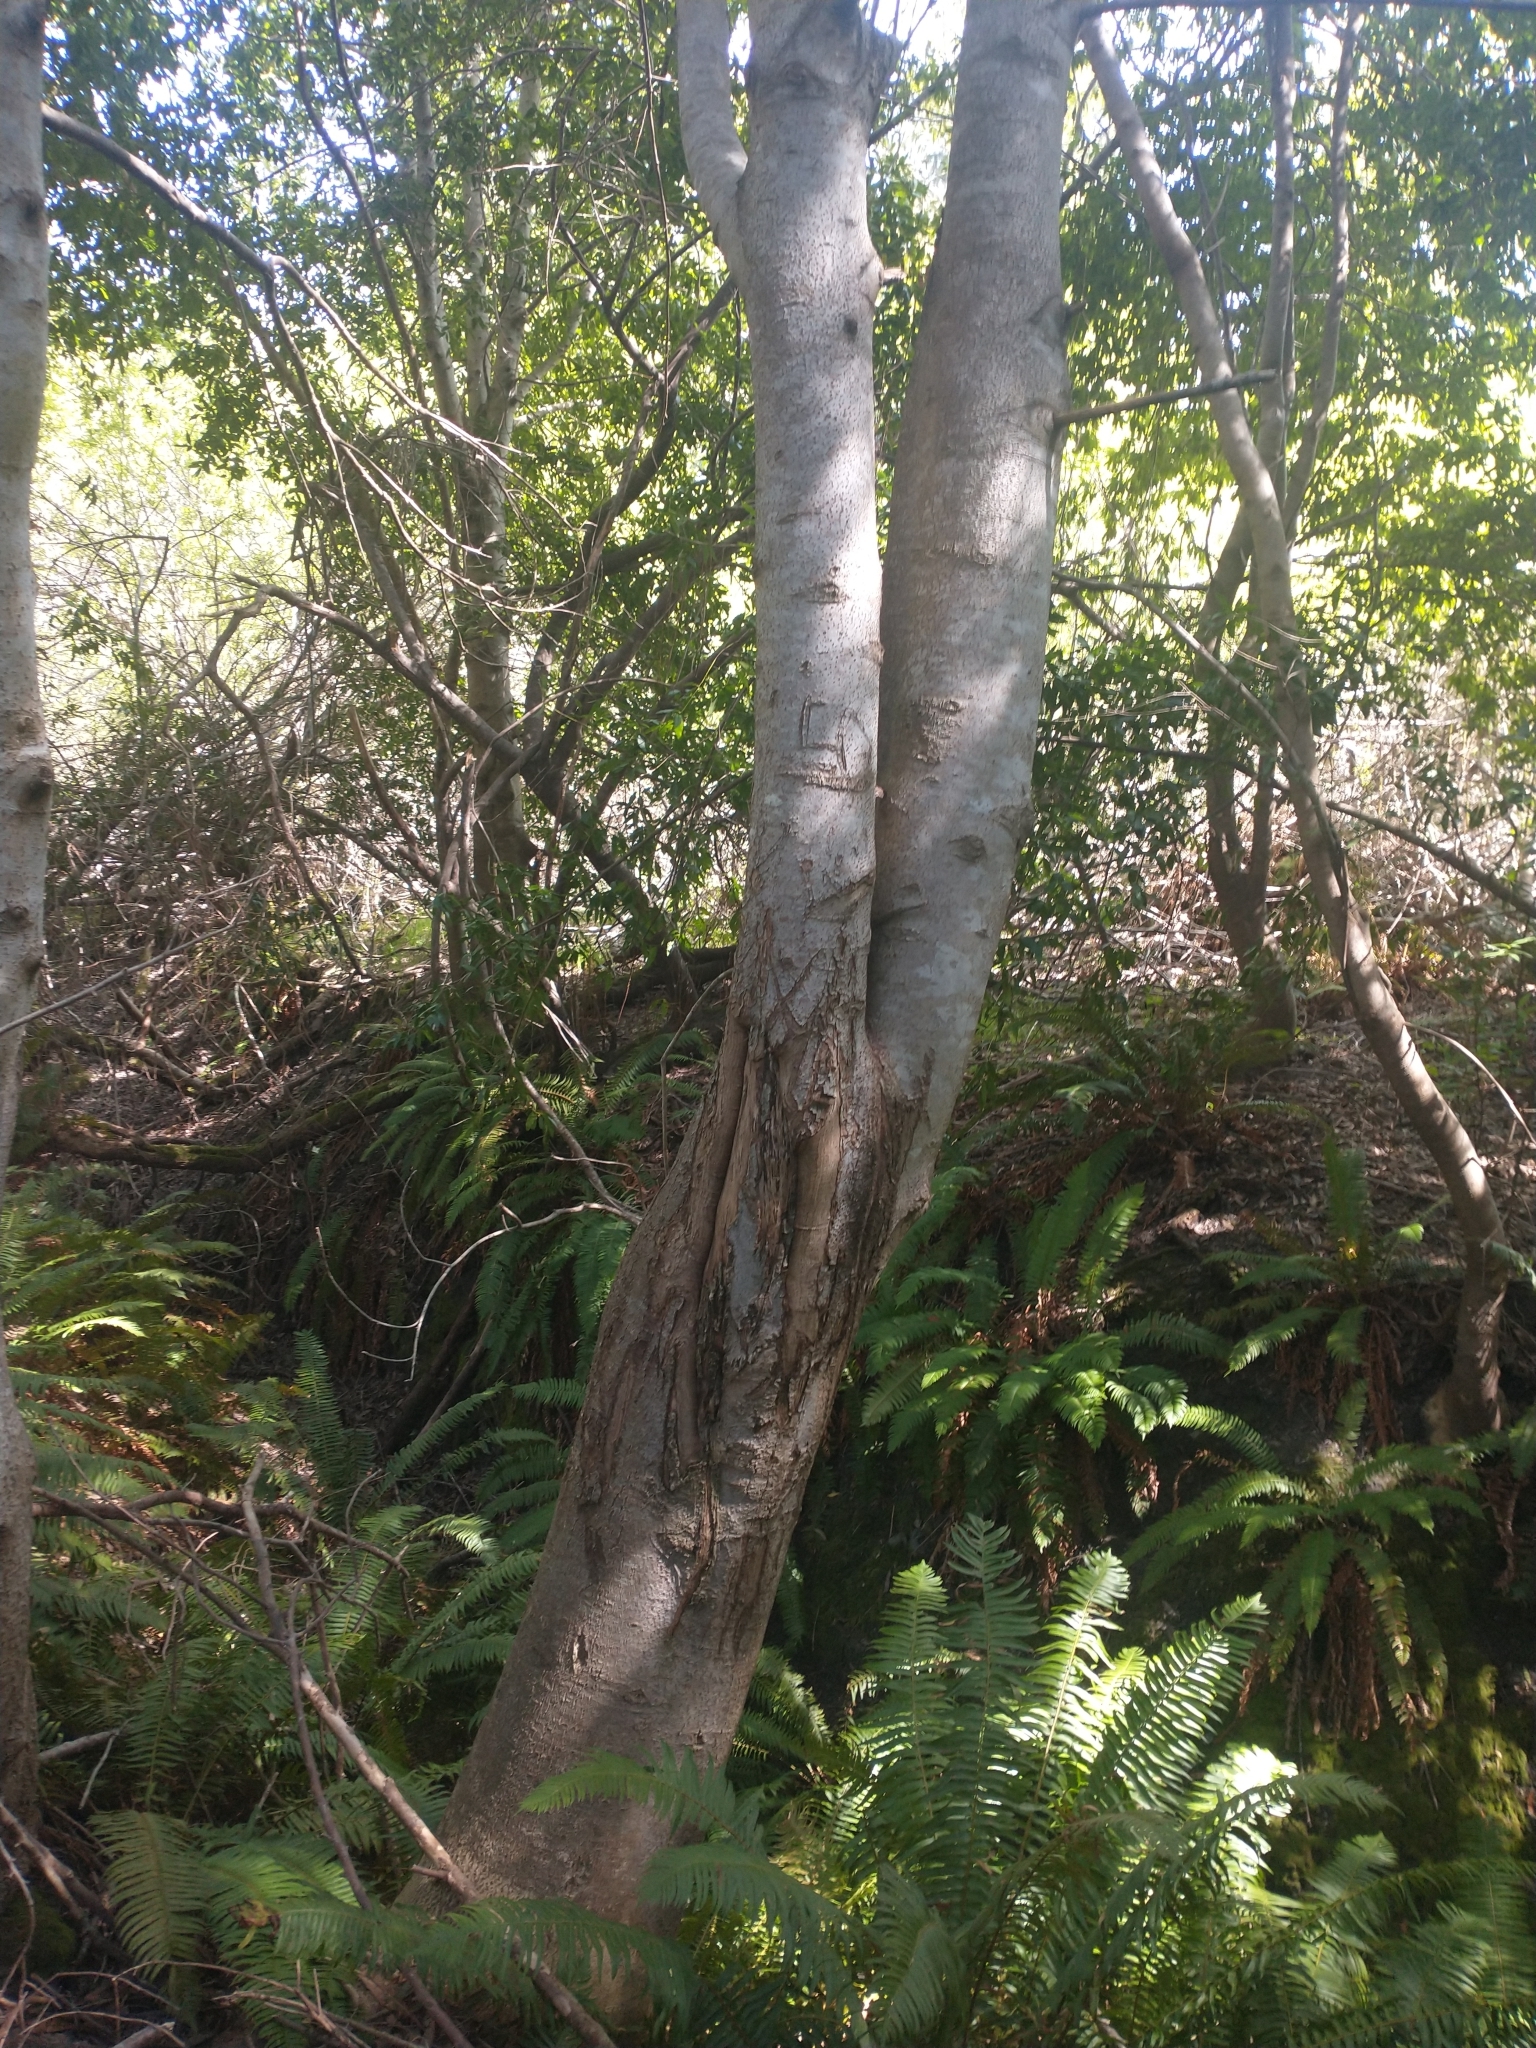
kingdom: Plantae
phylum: Tracheophyta
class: Polypodiopsida
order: Polypodiales
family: Dryopteridaceae
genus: Polystichum
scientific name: Polystichum munitum
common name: Western sword-fern
